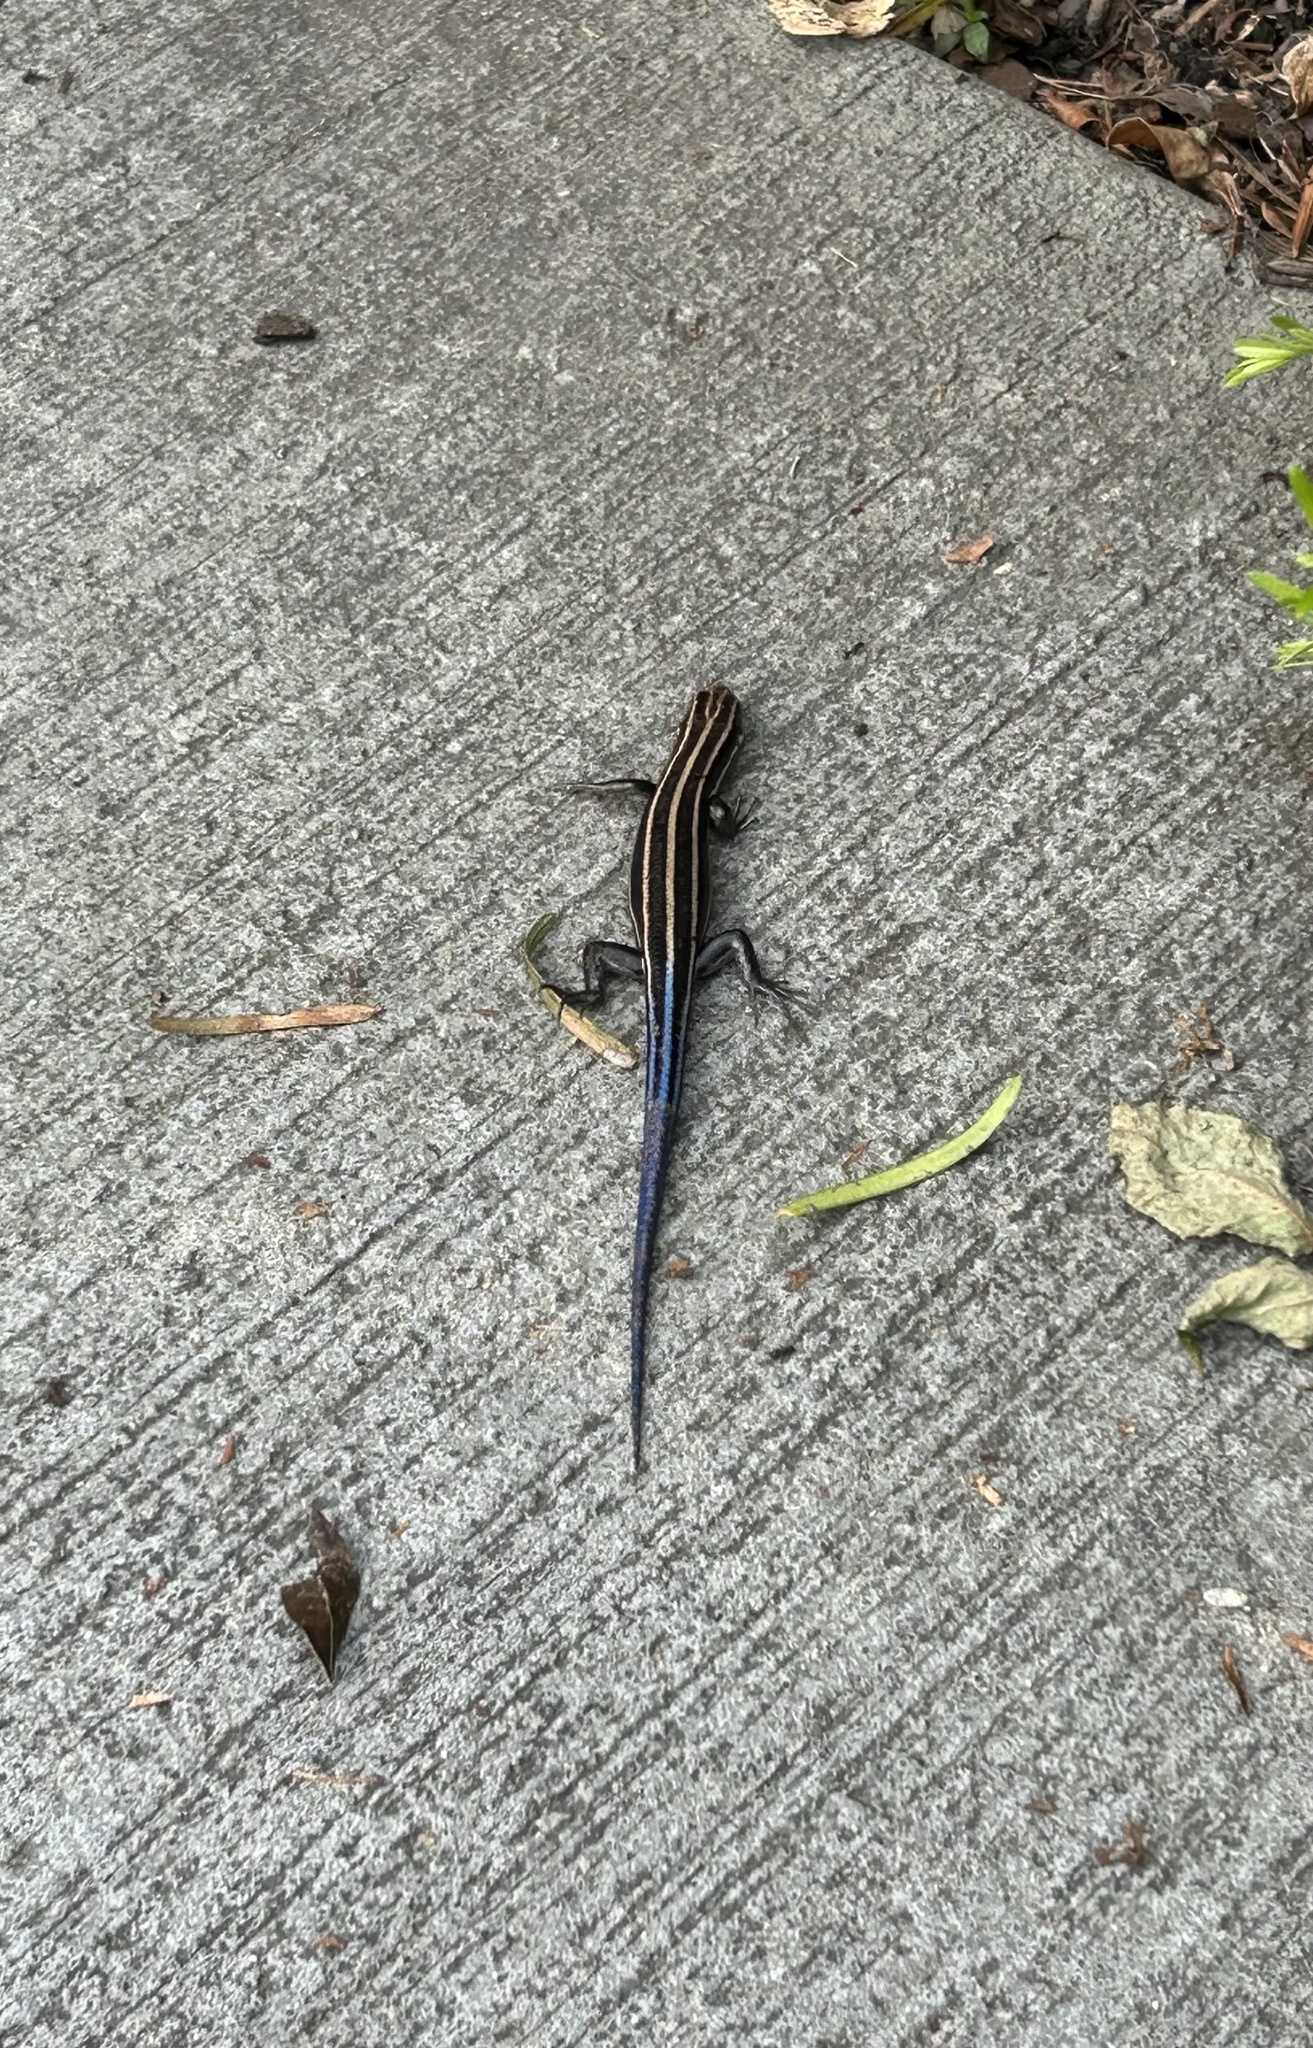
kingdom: Animalia
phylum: Chordata
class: Squamata
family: Scincidae
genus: Plestiodon
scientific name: Plestiodon fasciatus
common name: Five-lined skink
